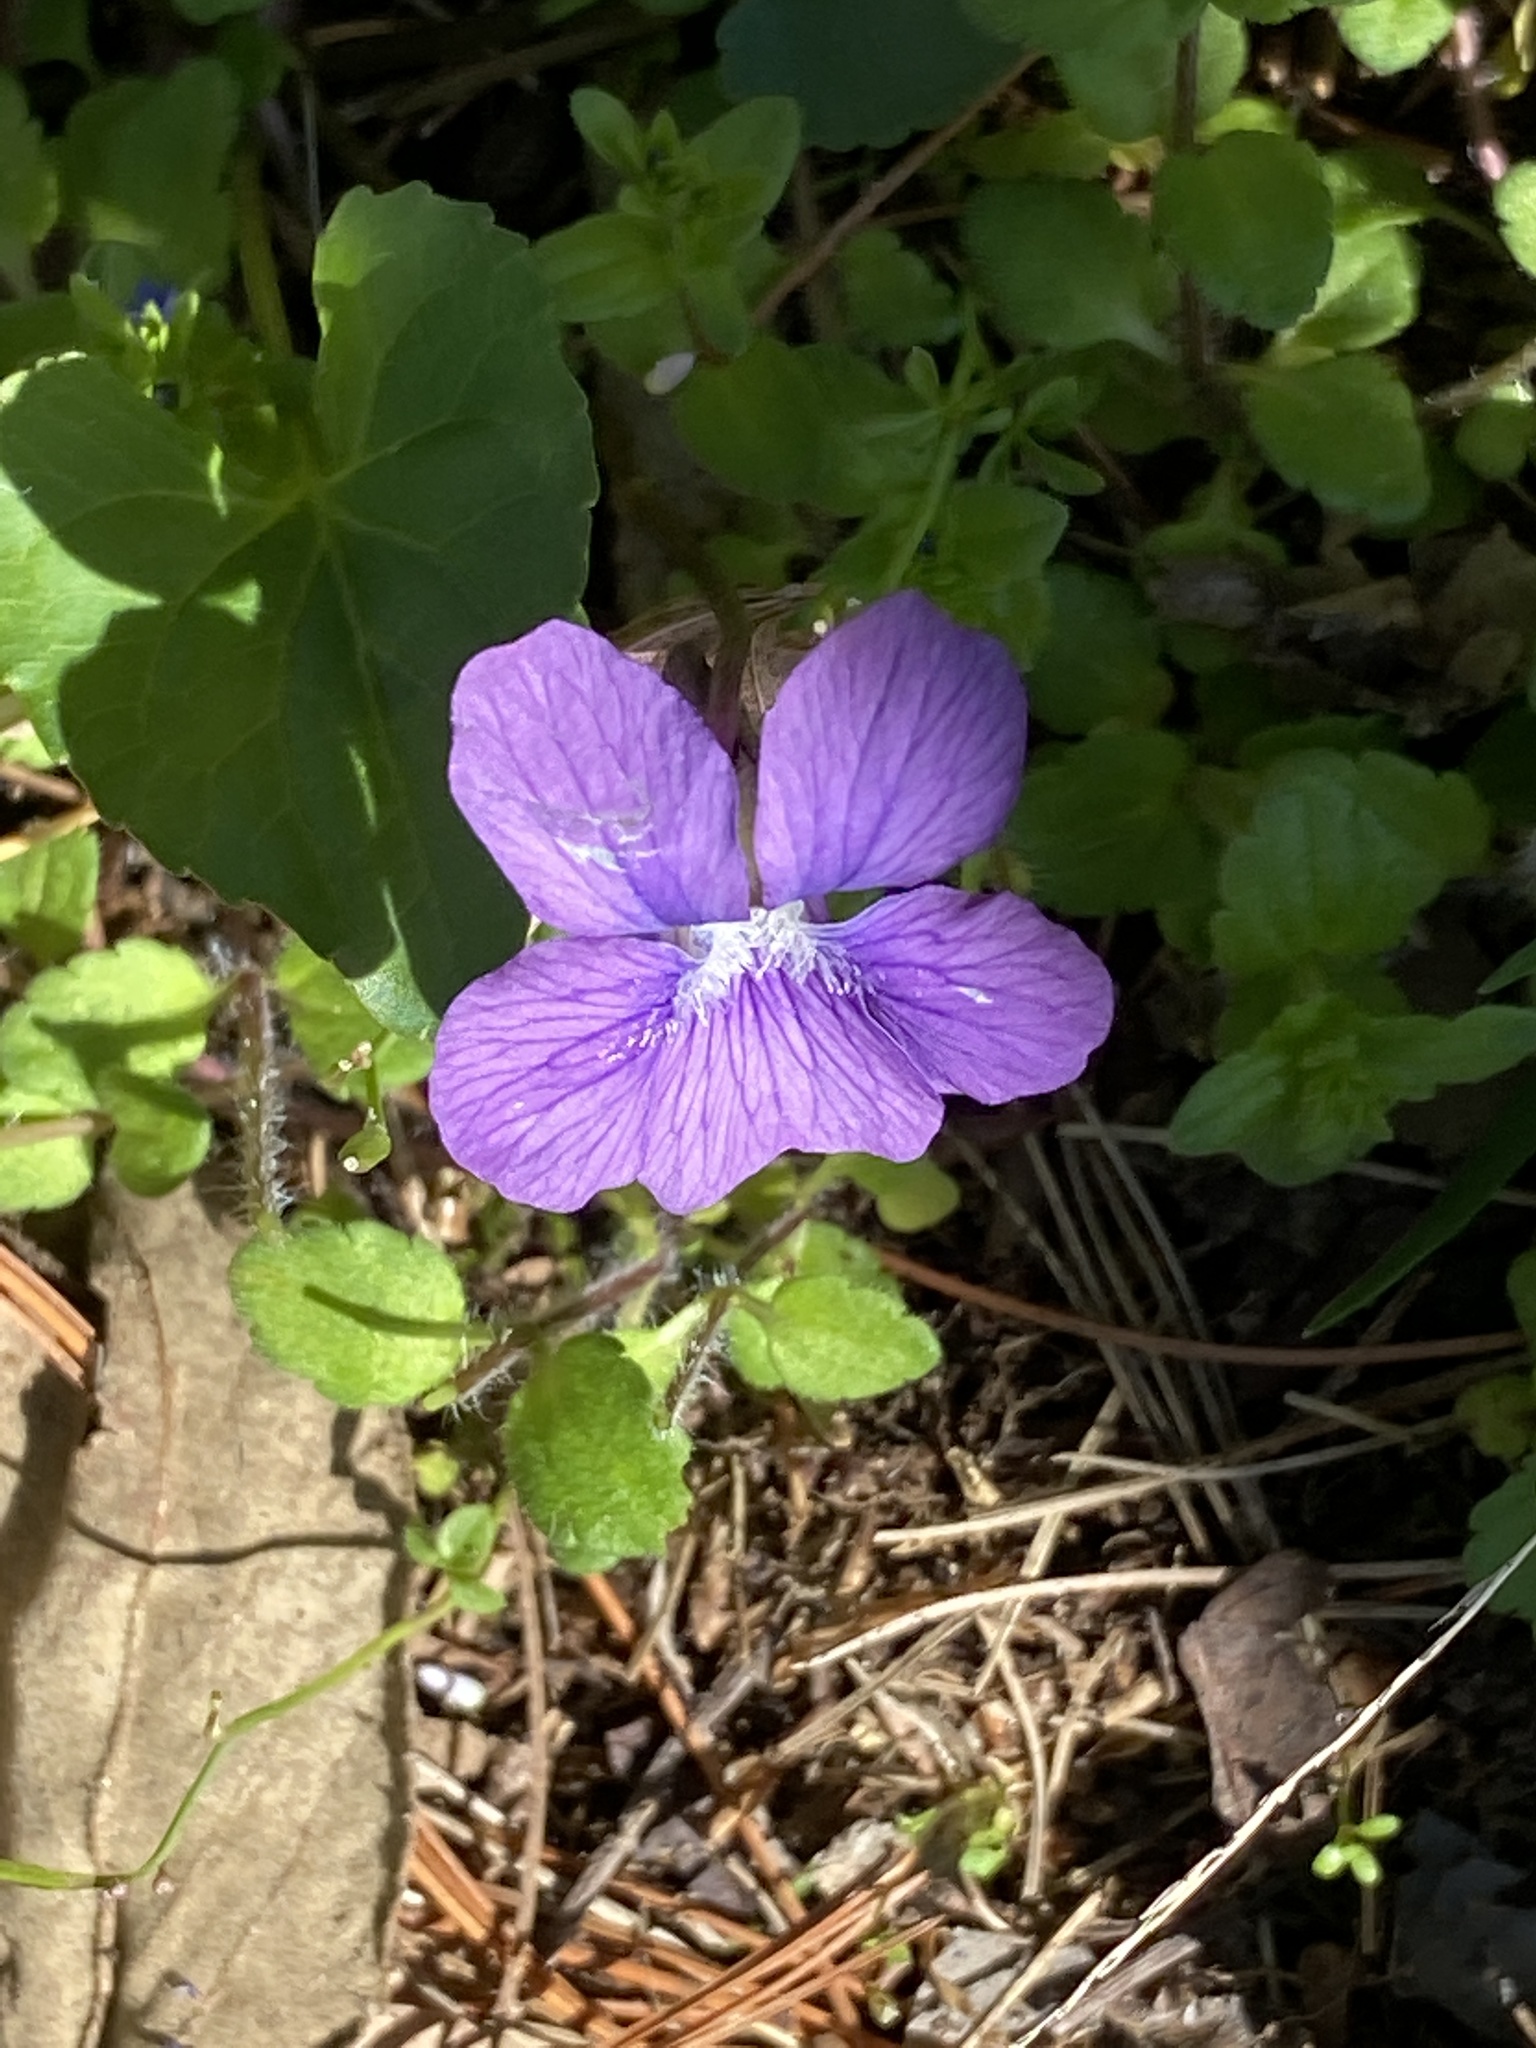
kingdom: Plantae
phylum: Tracheophyta
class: Magnoliopsida
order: Malpighiales
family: Violaceae
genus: Viola
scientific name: Viola sororia
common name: Dooryard violet
